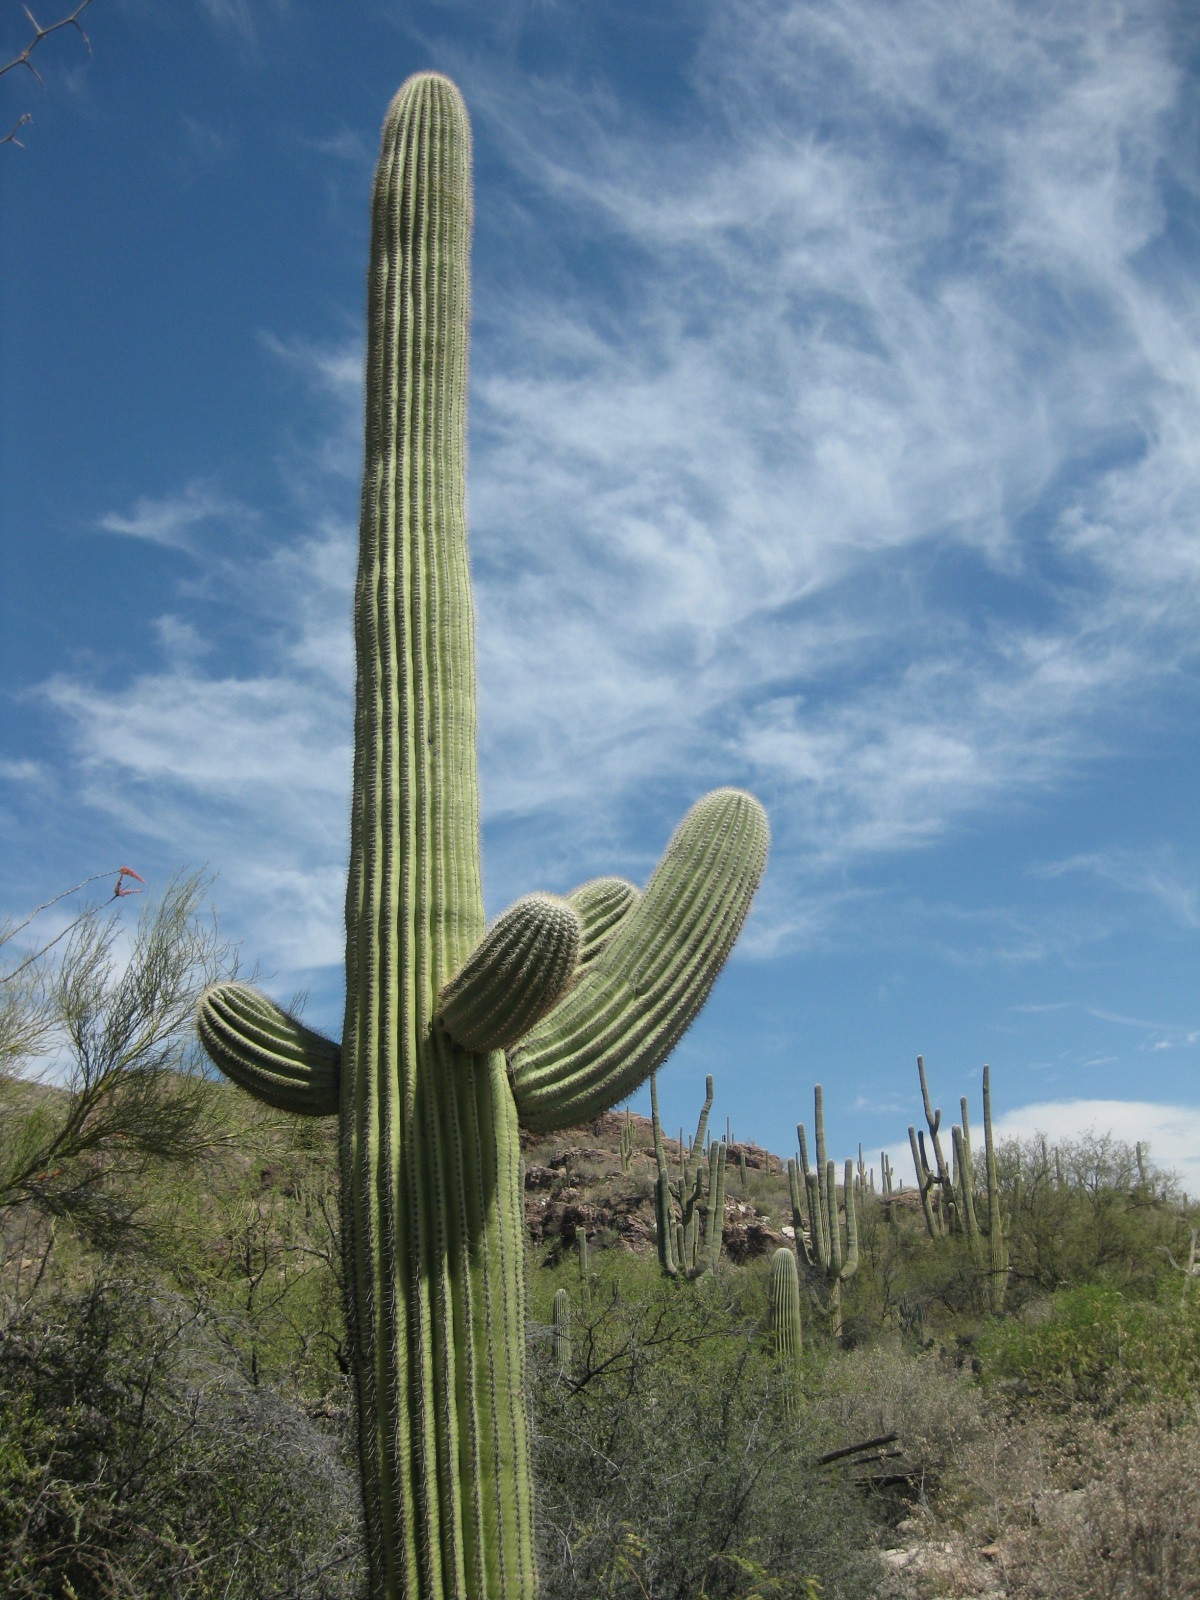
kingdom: Plantae
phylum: Tracheophyta
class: Magnoliopsida
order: Caryophyllales
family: Cactaceae
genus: Carnegiea
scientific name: Carnegiea gigantea
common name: Saguaro
